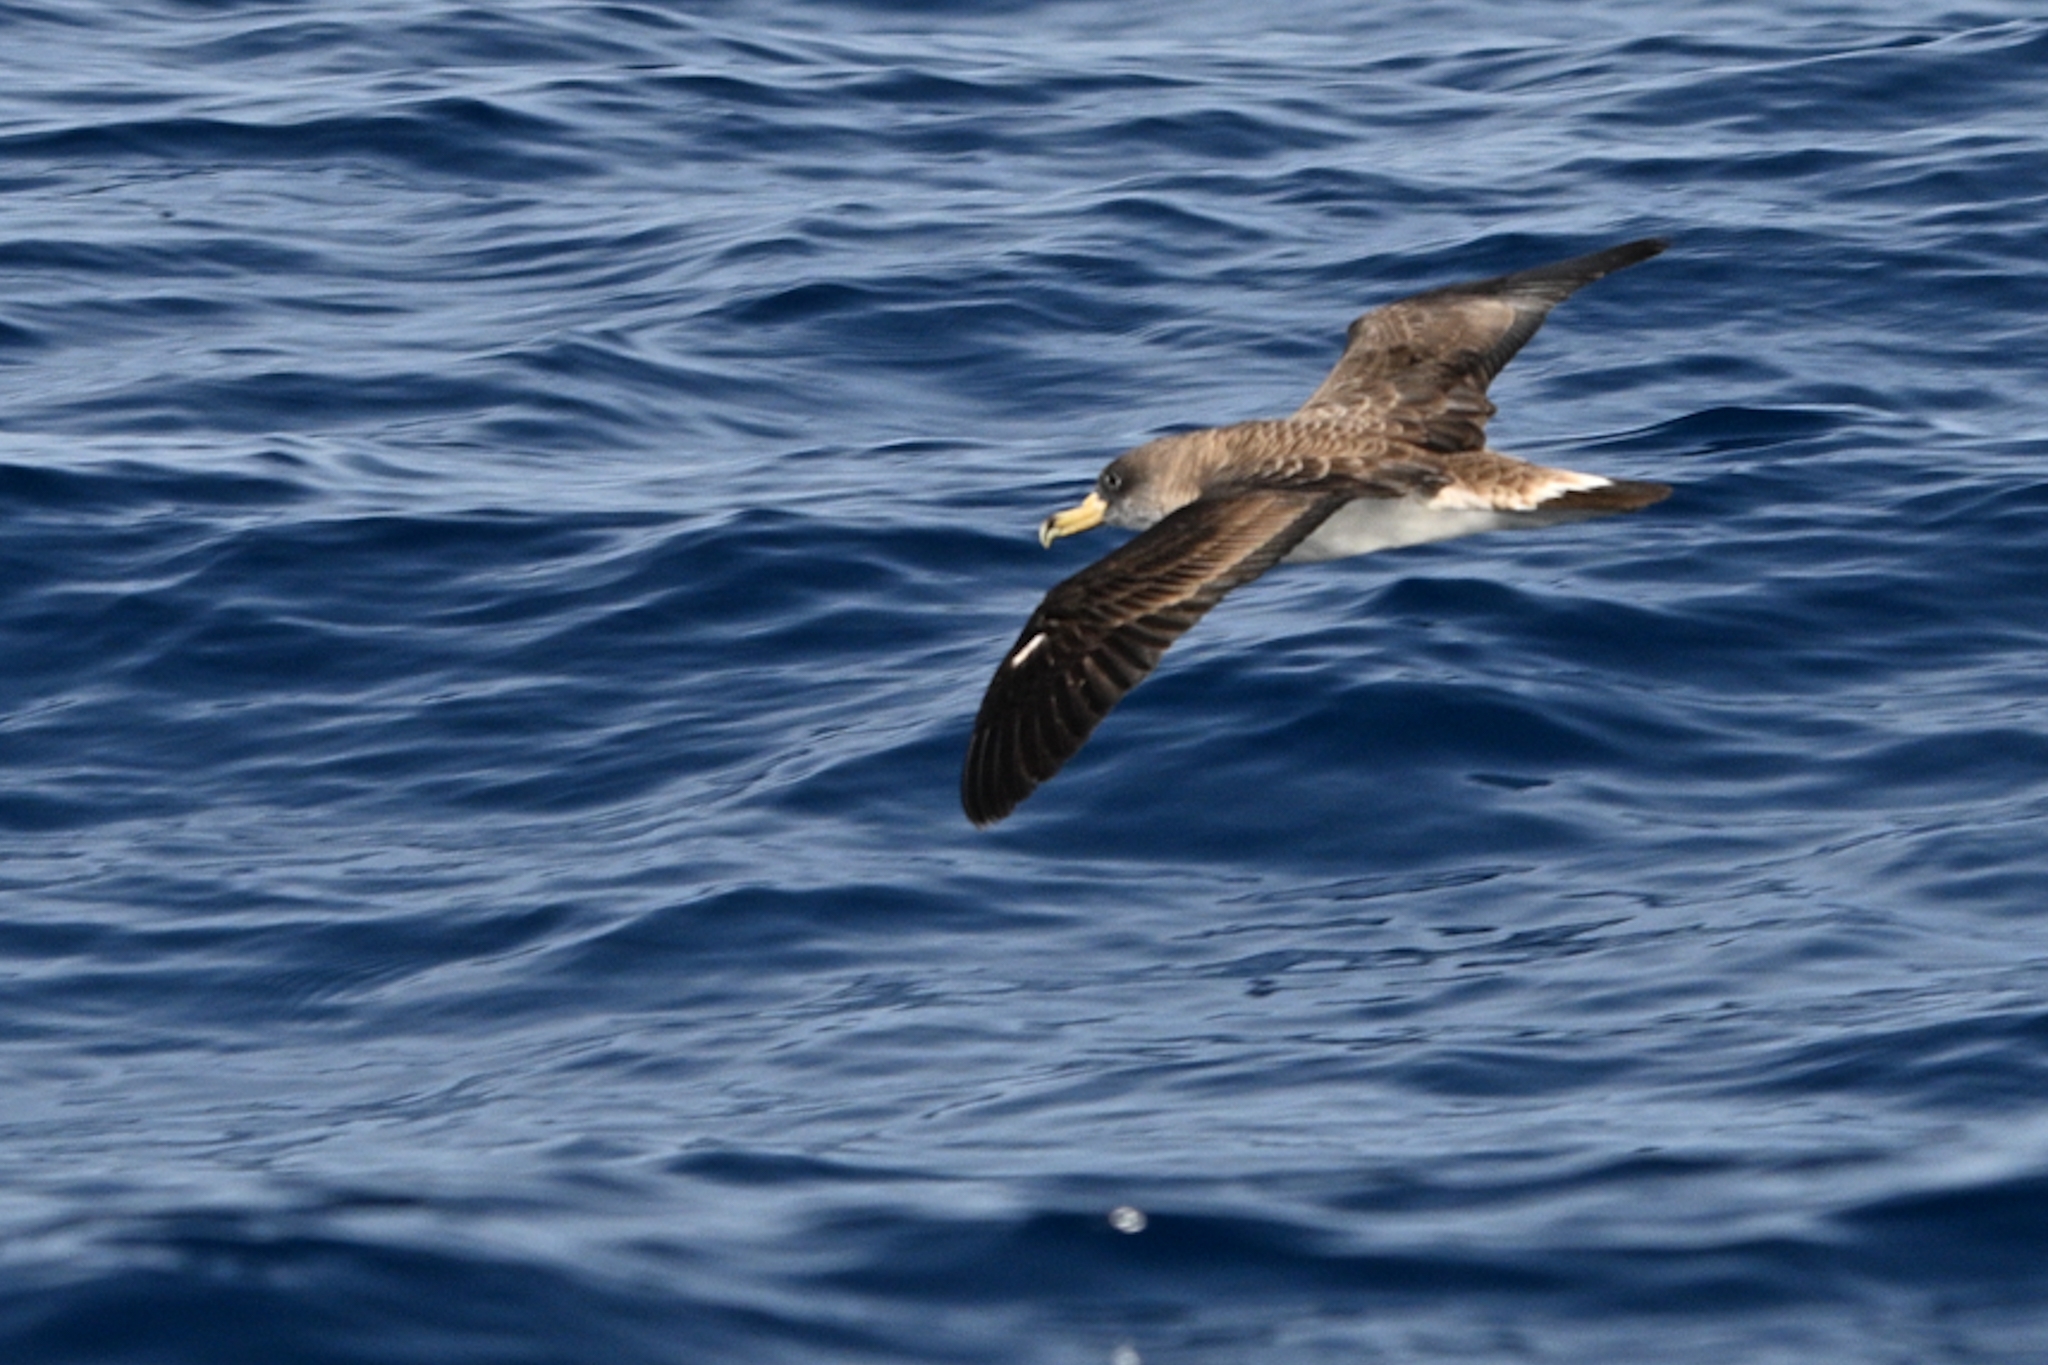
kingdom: Animalia
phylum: Chordata
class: Aves
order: Procellariiformes
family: Procellariidae
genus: Calonectris
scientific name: Calonectris diomedea
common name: Cory's shearwater
